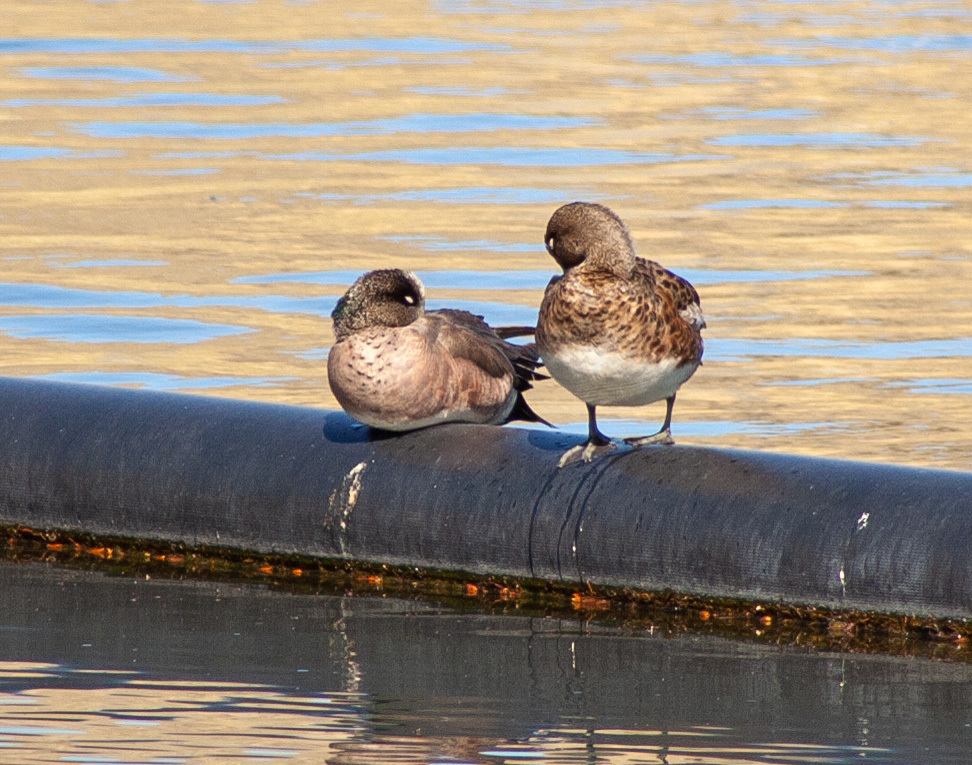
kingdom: Animalia
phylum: Chordata
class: Aves
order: Anseriformes
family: Anatidae
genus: Mareca
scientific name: Mareca americana
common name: American wigeon
